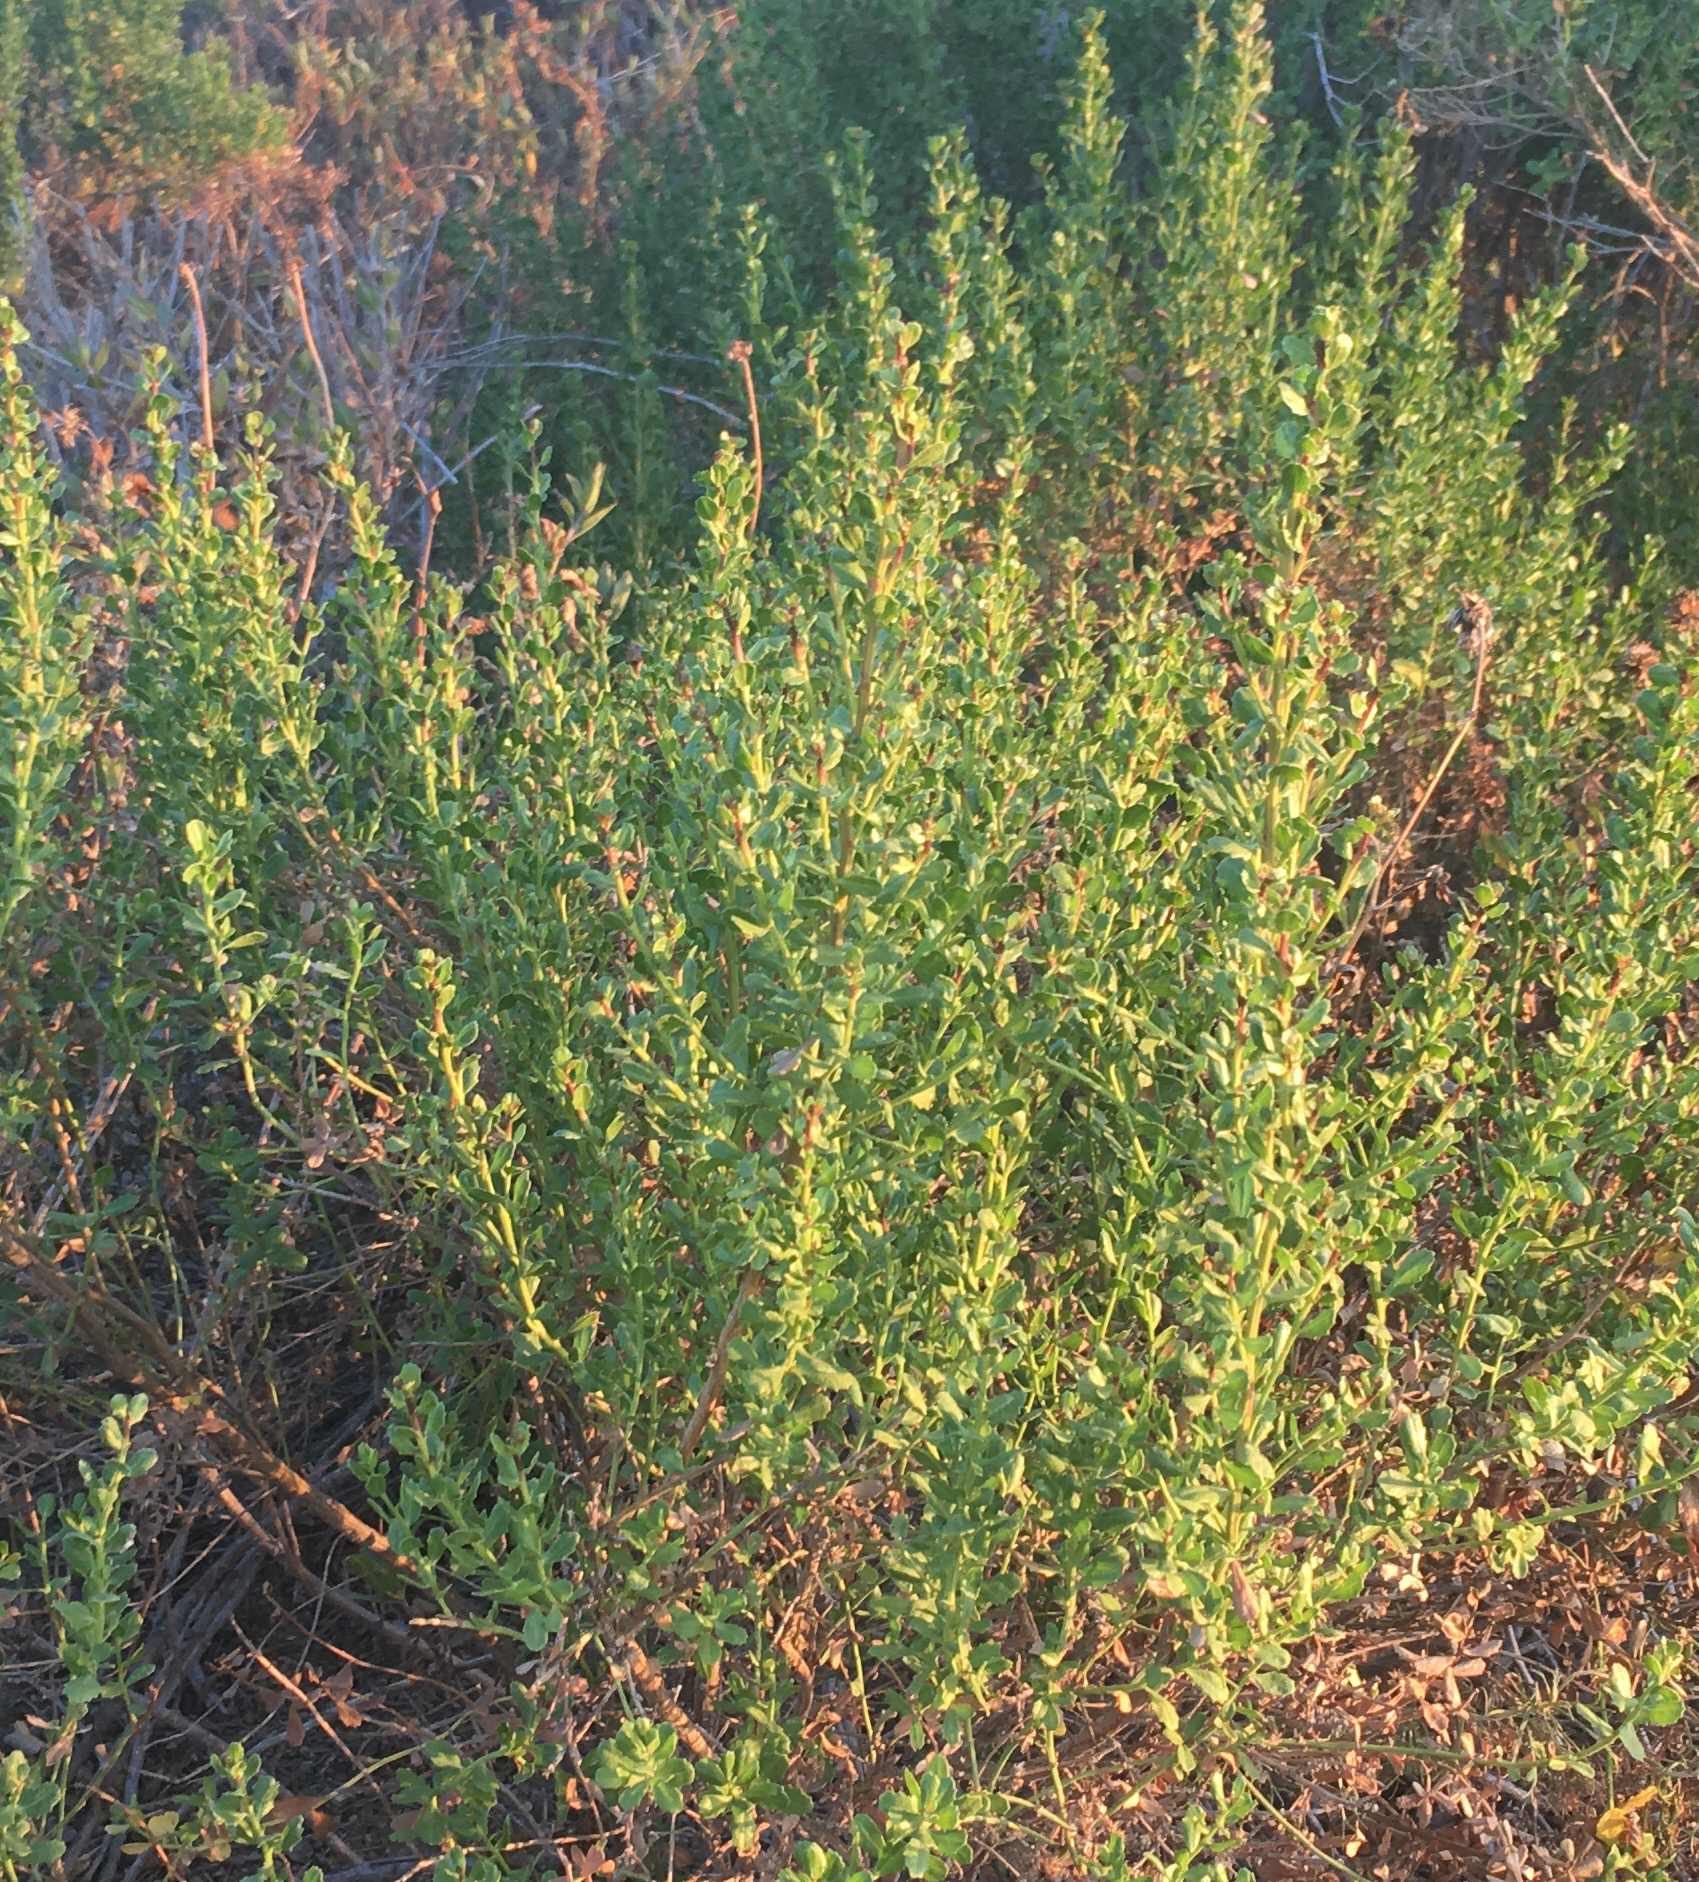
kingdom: Plantae
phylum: Tracheophyta
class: Magnoliopsida
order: Asterales
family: Asteraceae
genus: Baccharis
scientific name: Baccharis pilularis
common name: Coyotebrush
